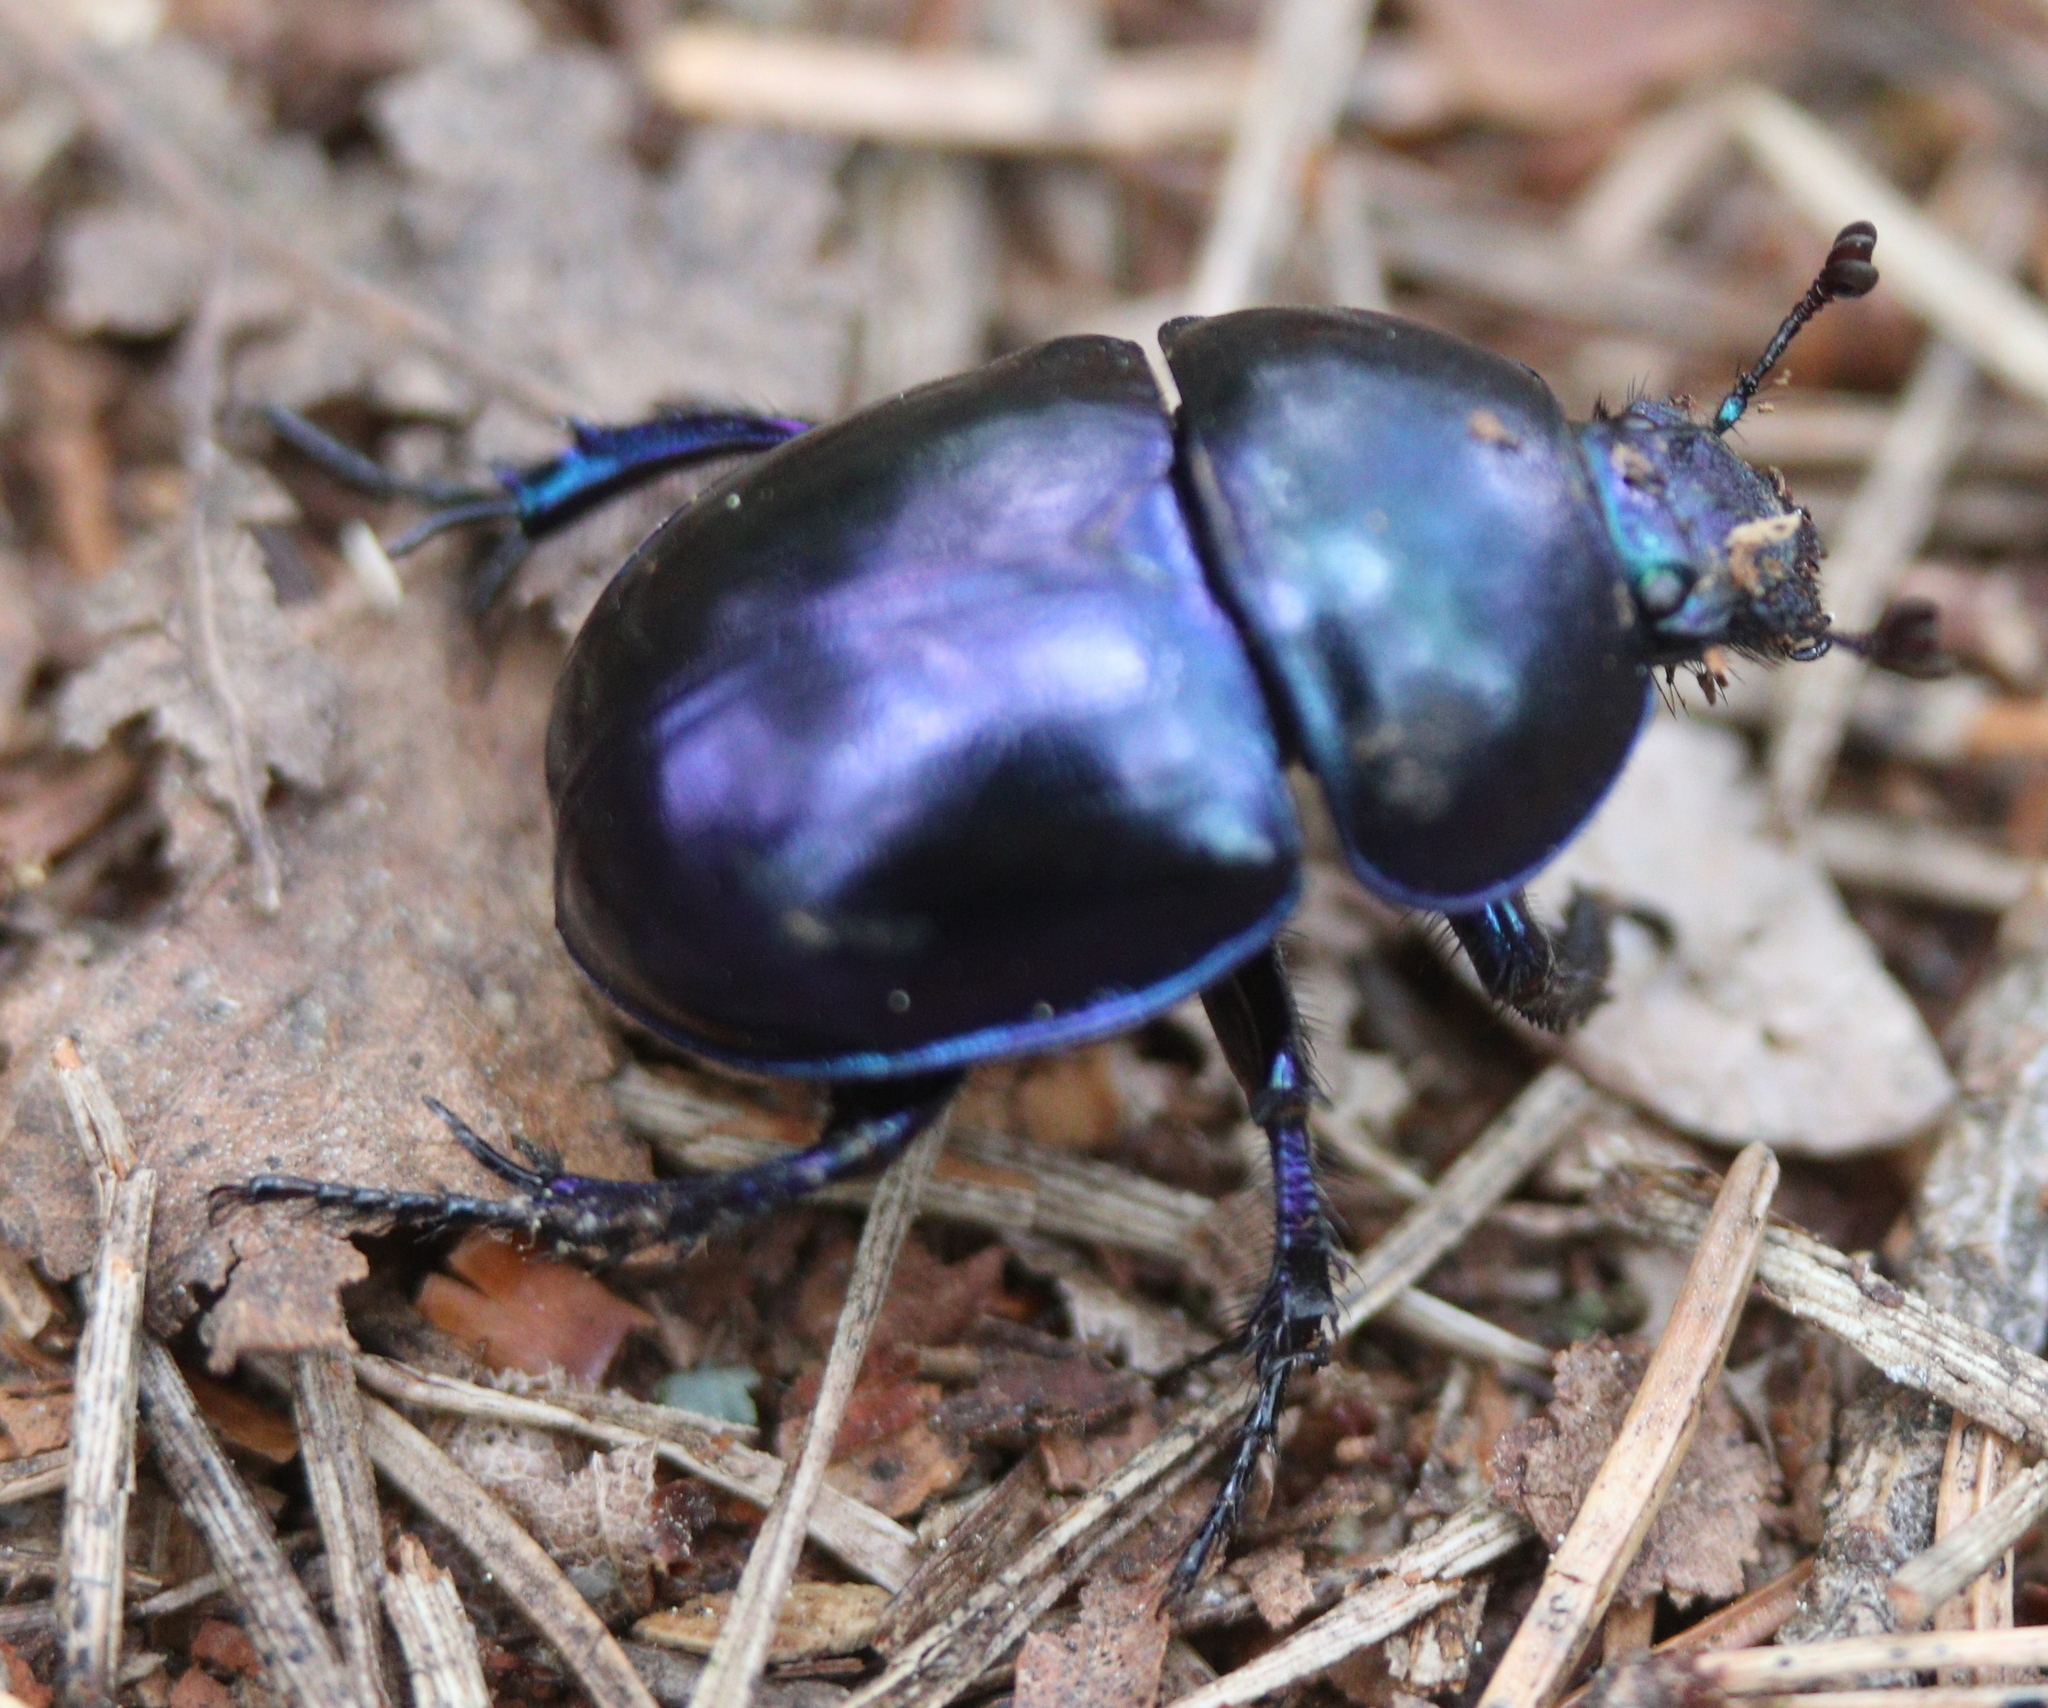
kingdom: Animalia
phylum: Arthropoda
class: Insecta
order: Coleoptera
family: Geotrupidae
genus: Trypocopris
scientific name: Trypocopris vernalis
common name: Spring dumbledor
